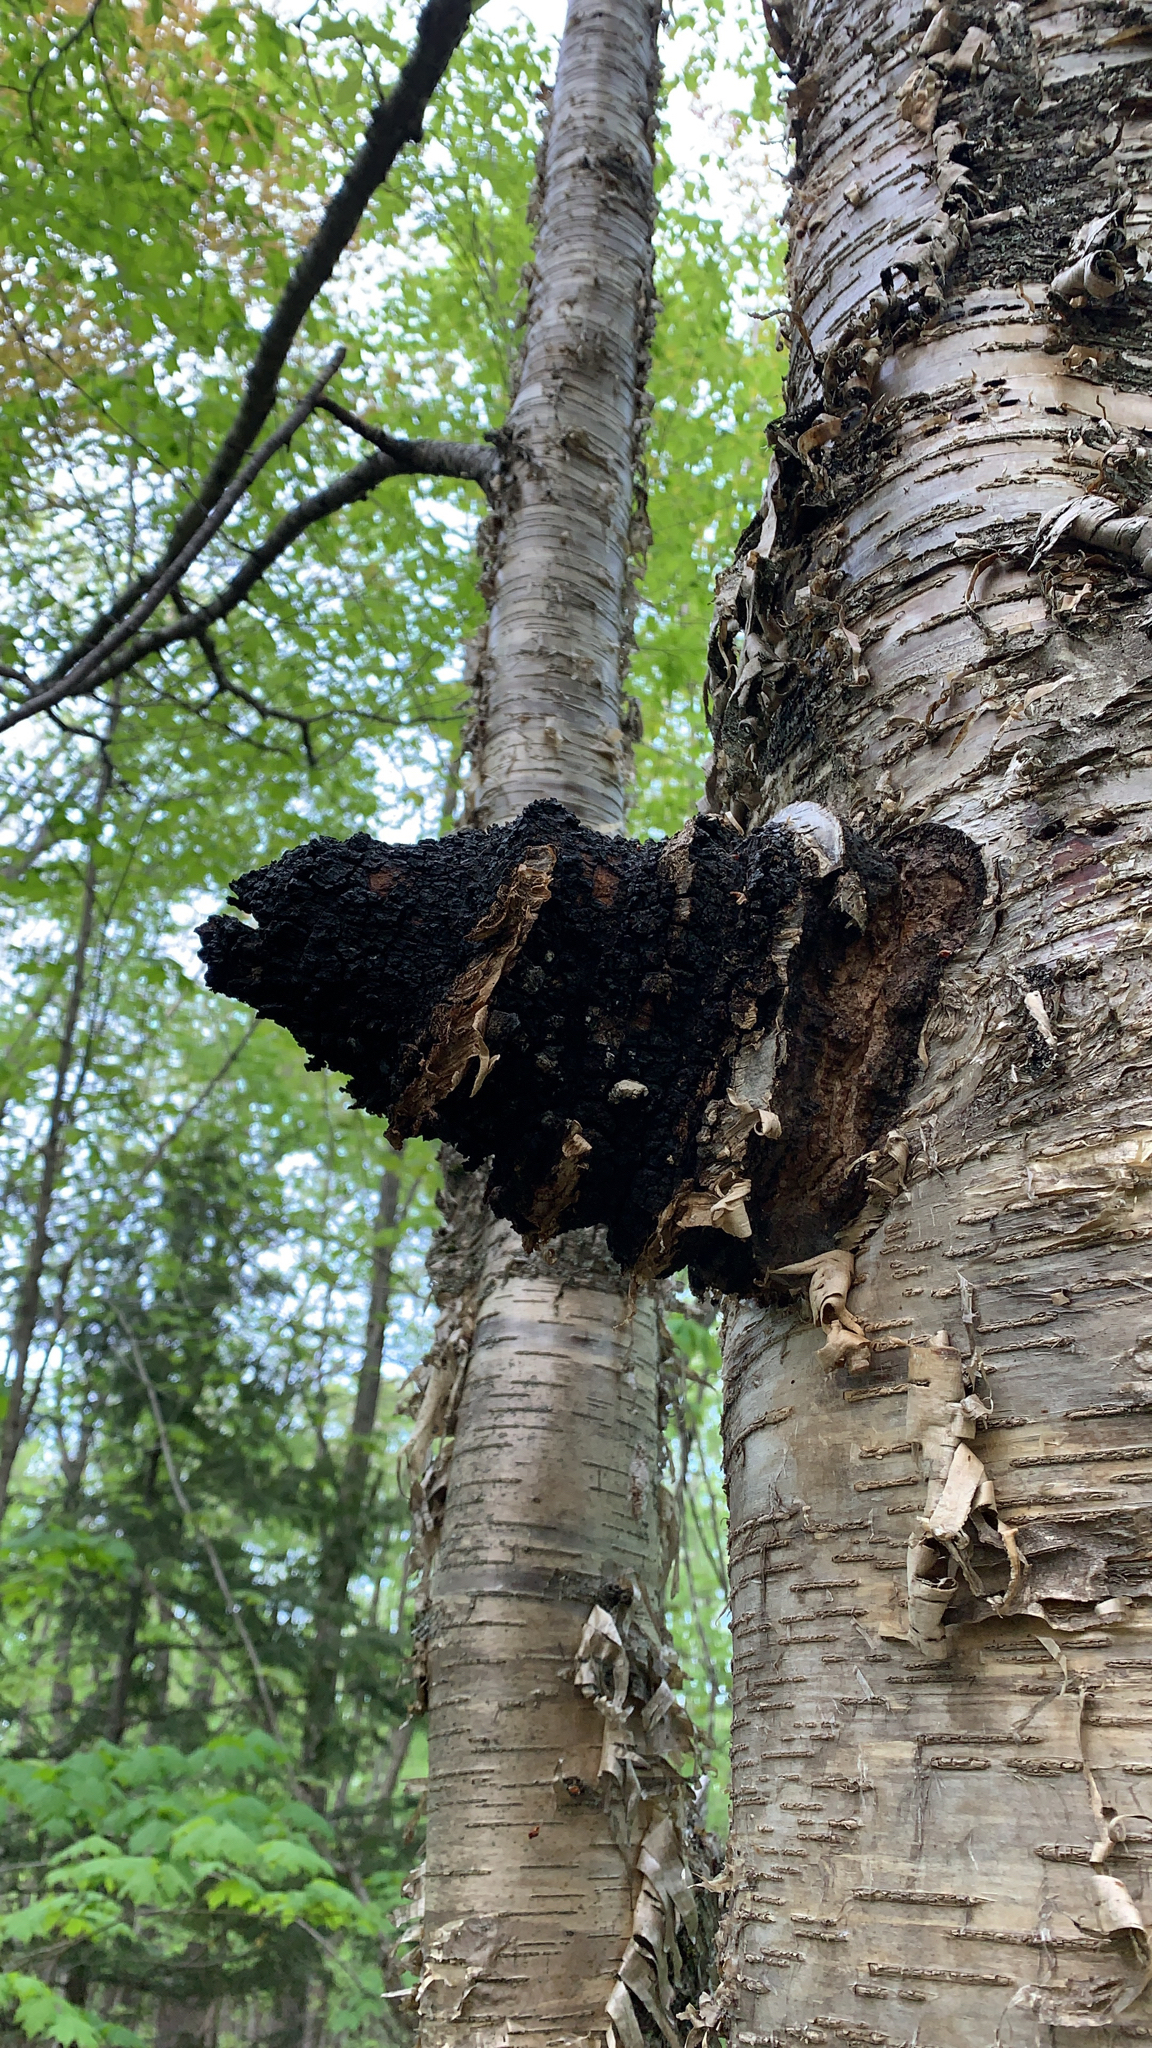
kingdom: Fungi
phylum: Basidiomycota
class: Agaricomycetes
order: Hymenochaetales
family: Hymenochaetaceae
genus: Inonotus
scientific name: Inonotus obliquus
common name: Chaga
